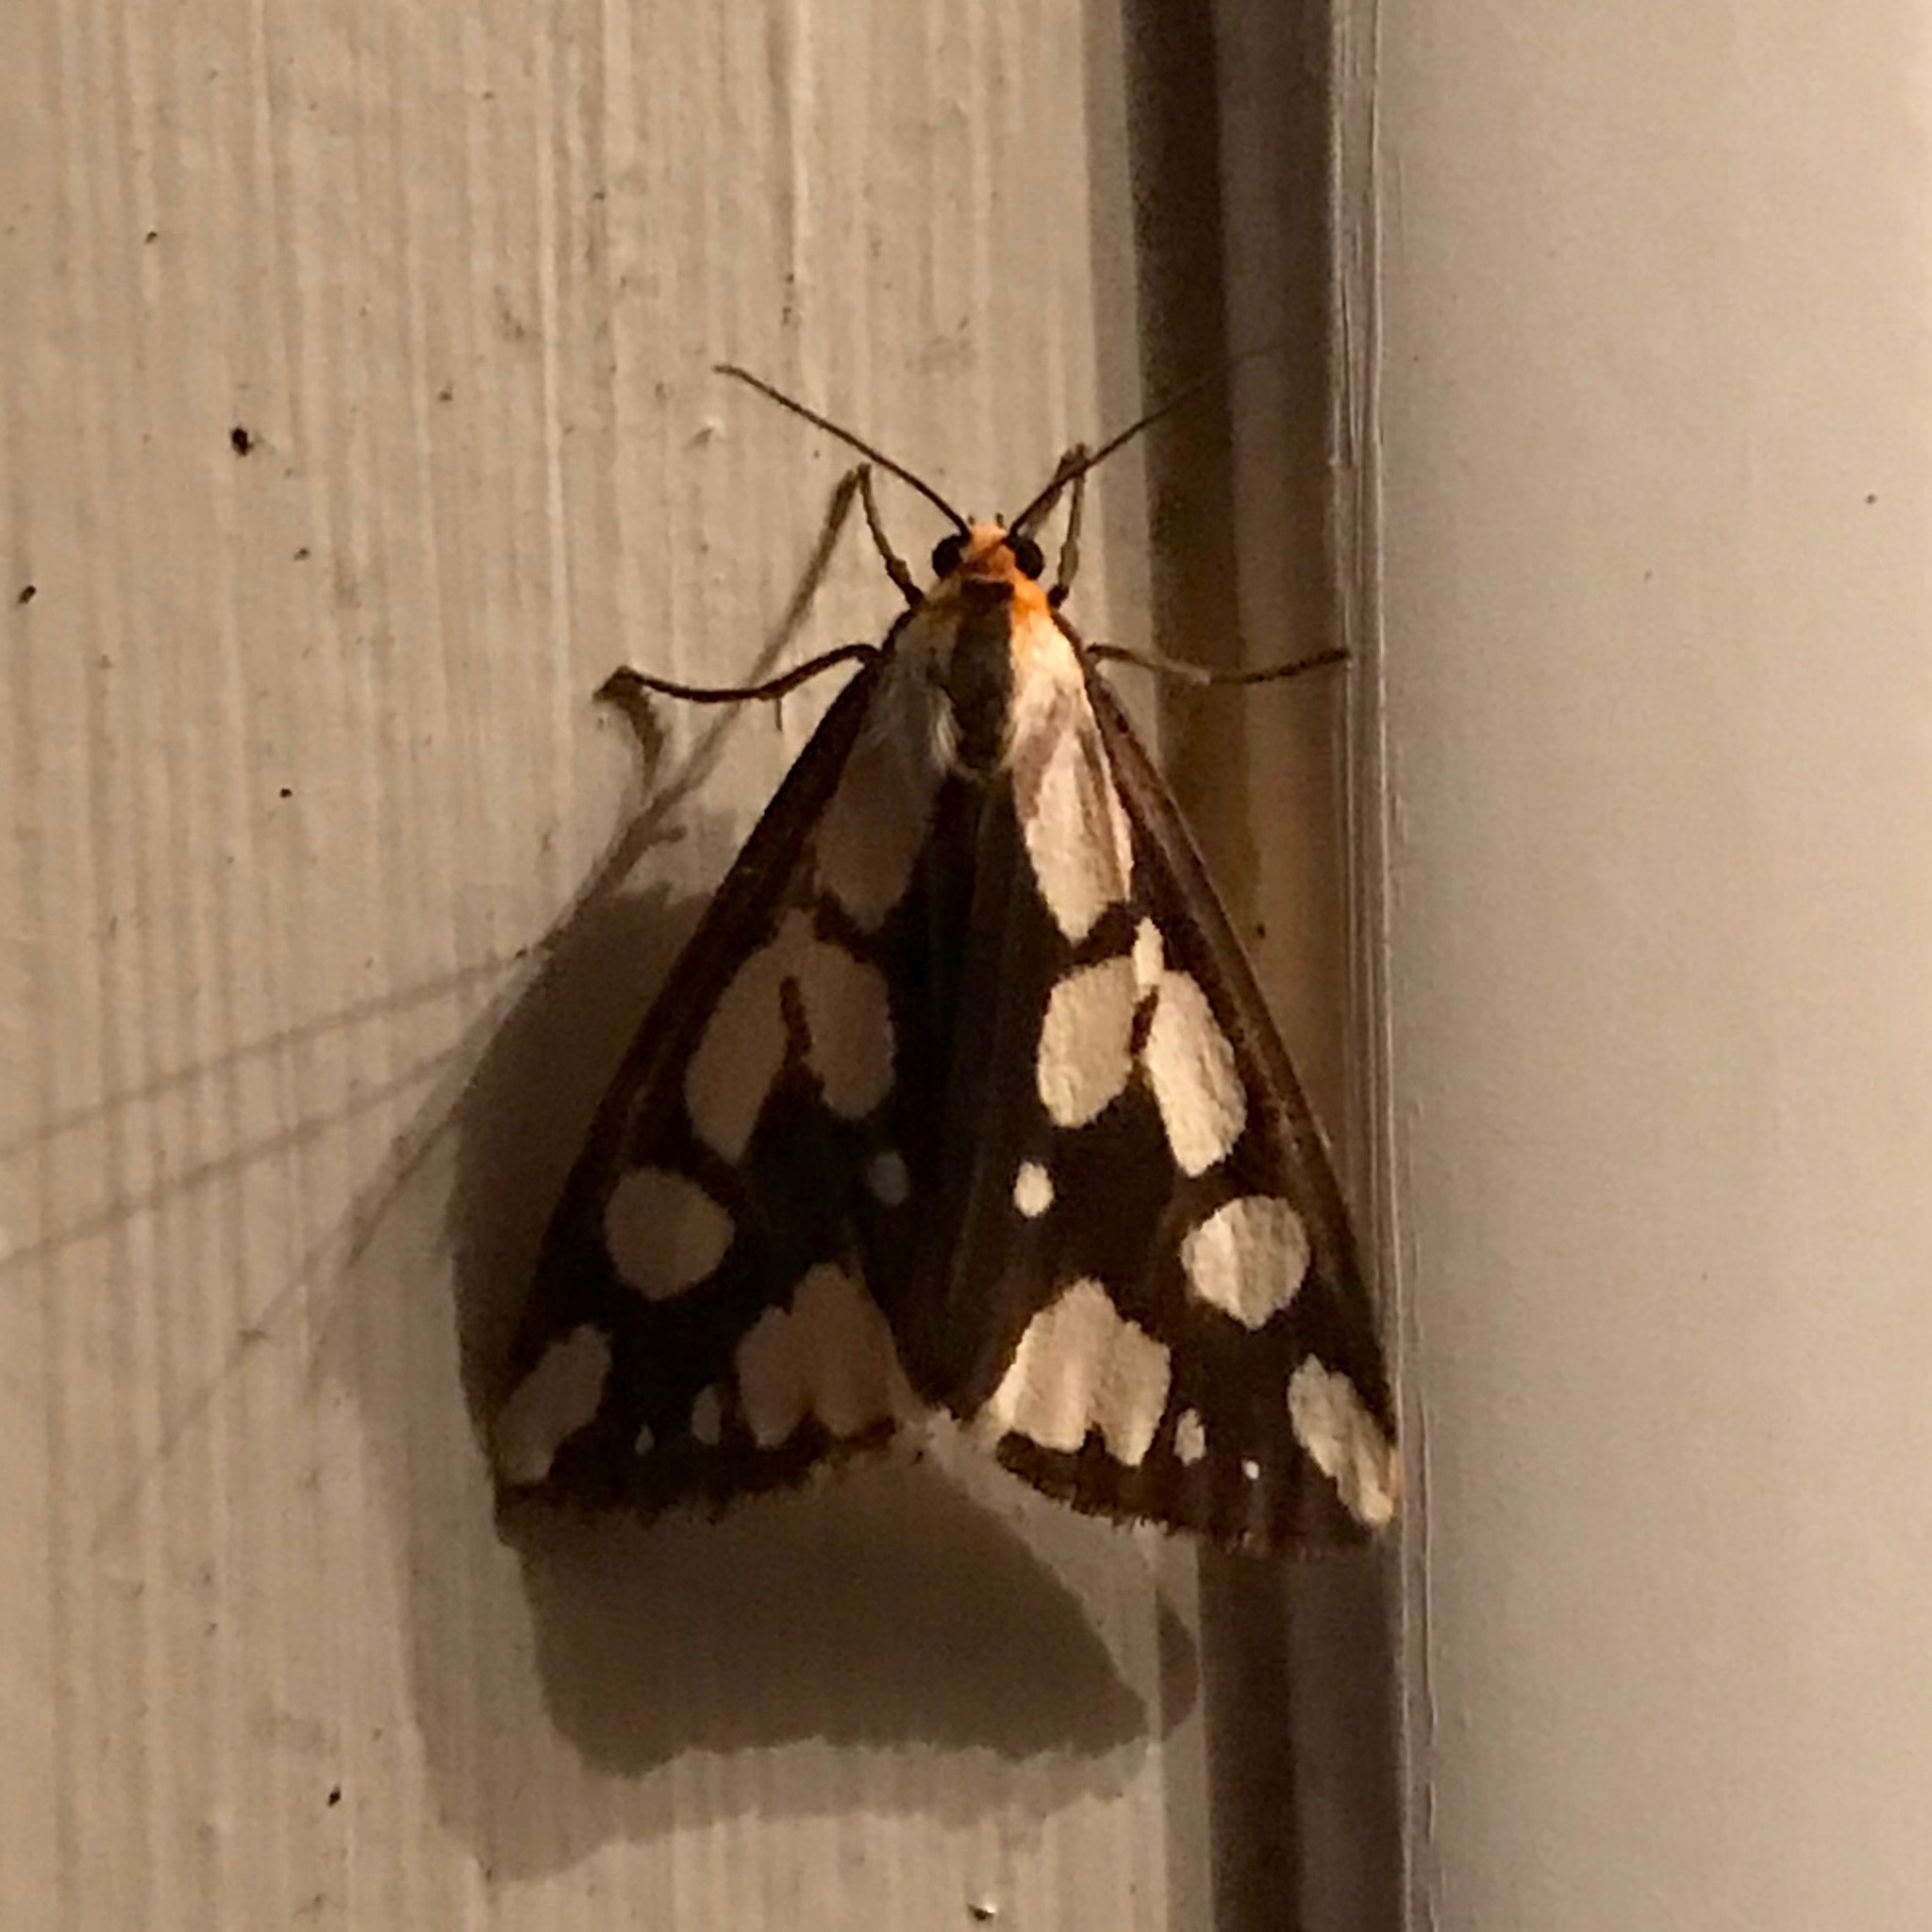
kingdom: Animalia
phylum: Arthropoda
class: Insecta
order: Lepidoptera
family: Erebidae
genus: Haploa
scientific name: Haploa confusa
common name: Confused haploa moth
